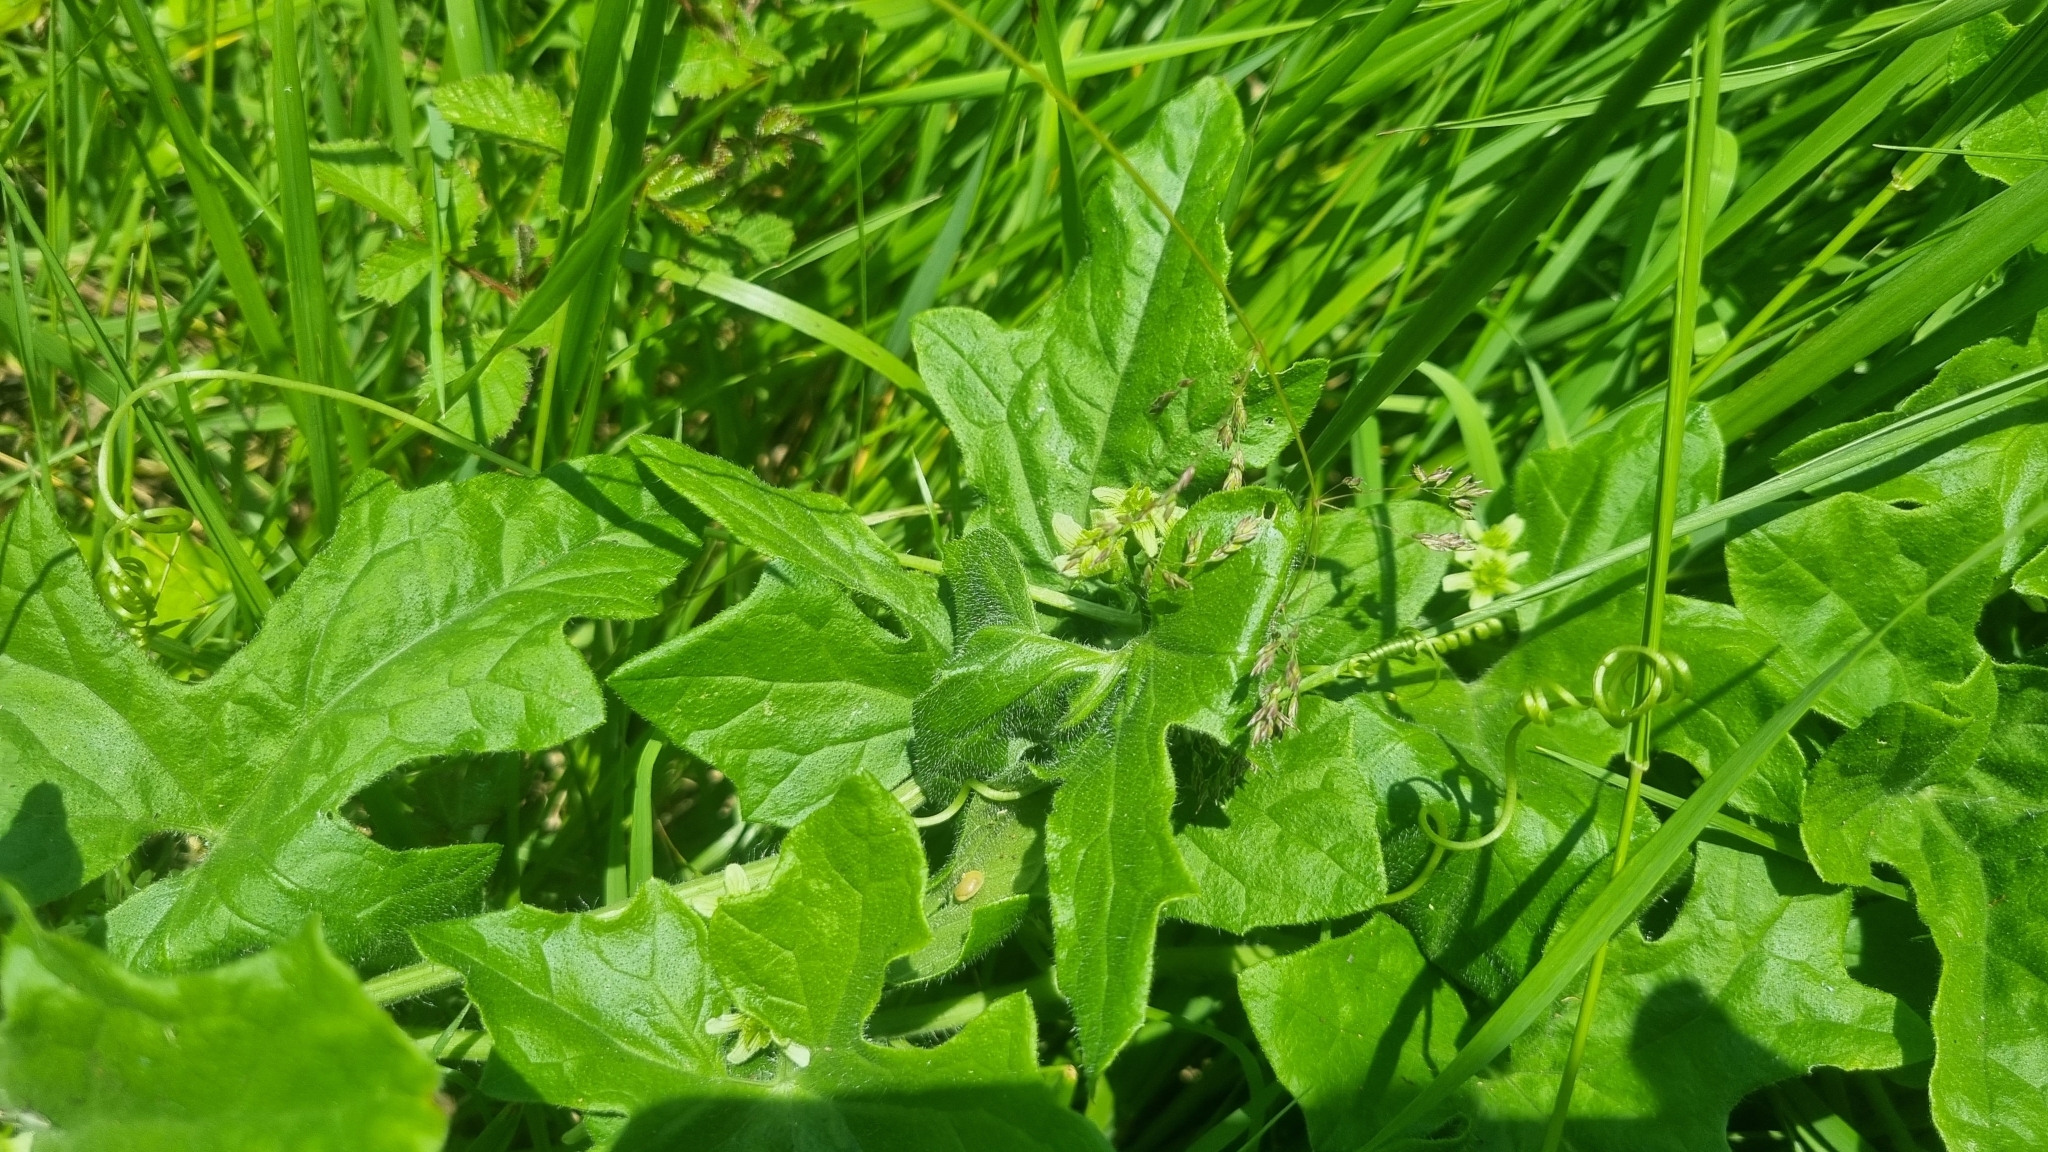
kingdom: Plantae
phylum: Tracheophyta
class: Magnoliopsida
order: Cucurbitales
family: Cucurbitaceae
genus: Bryonia
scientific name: Bryonia cretica
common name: Cretan bryony
